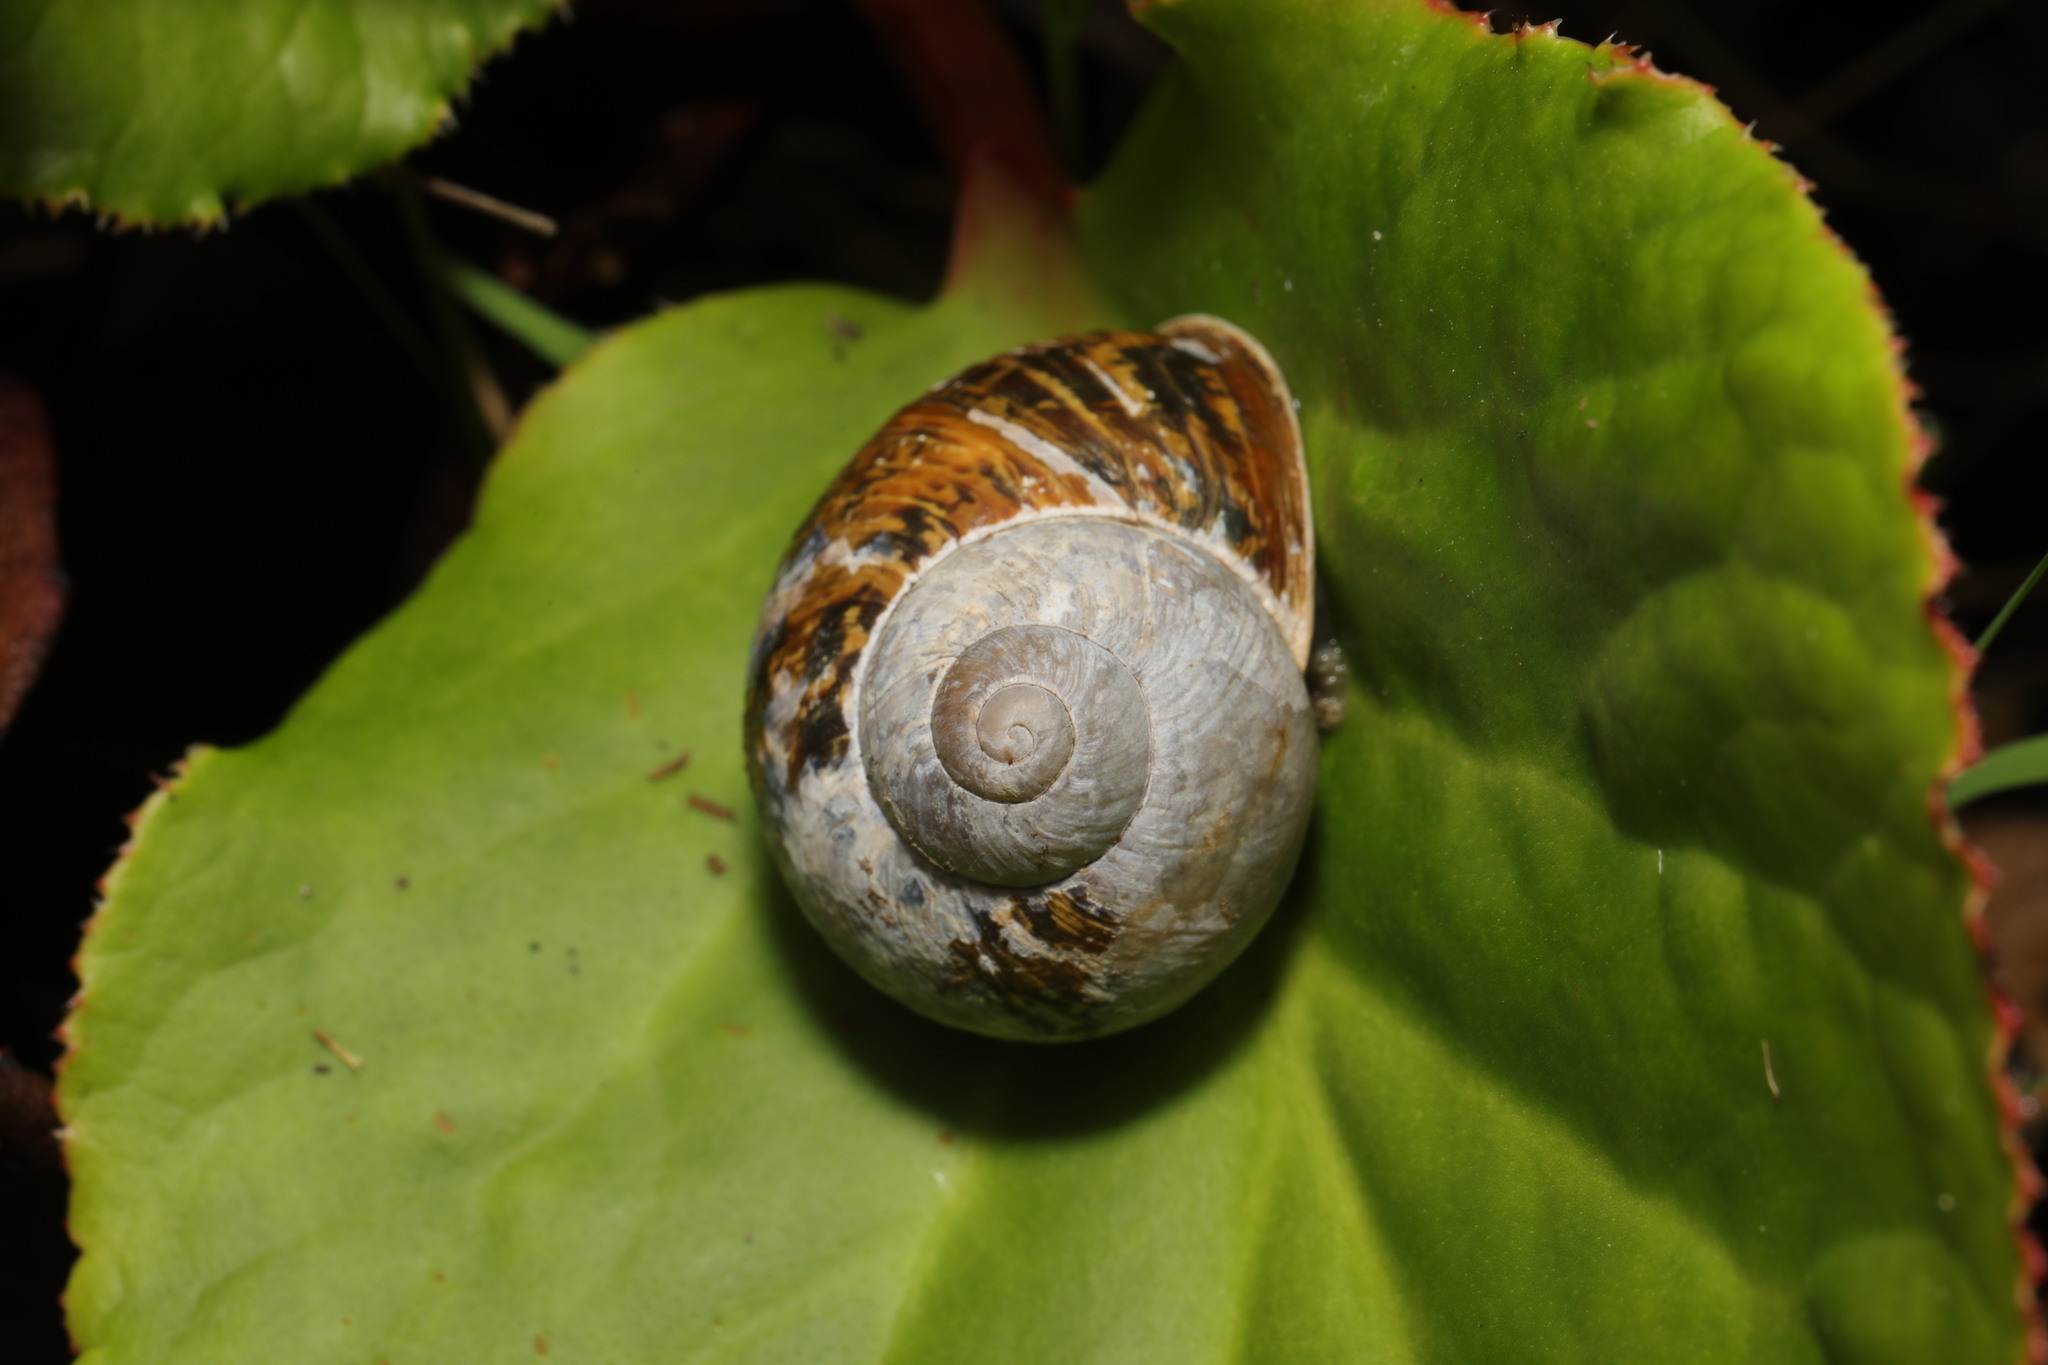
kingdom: Animalia
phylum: Mollusca
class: Gastropoda
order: Stylommatophora
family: Helicidae
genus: Cornu
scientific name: Cornu aspersum
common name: Brown garden snail
